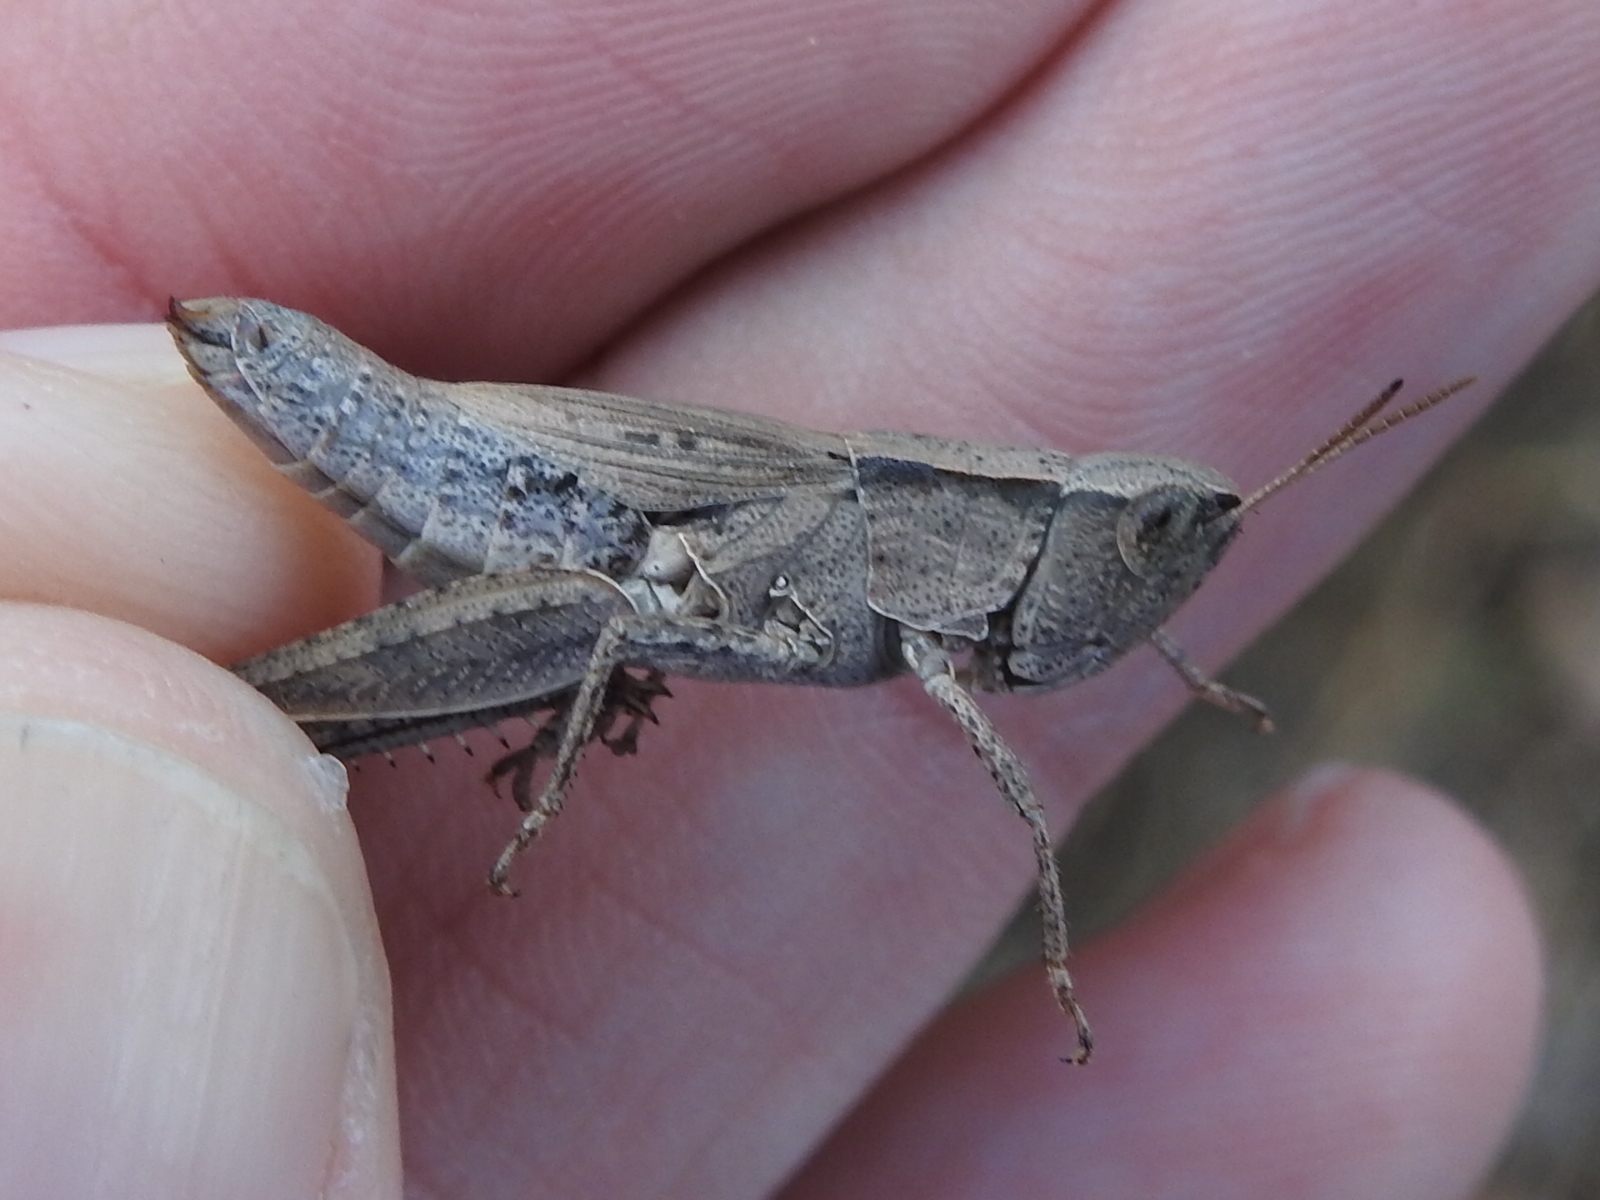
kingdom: Animalia
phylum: Arthropoda
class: Insecta
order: Orthoptera
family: Acrididae
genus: Dichromorpha
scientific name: Dichromorpha viridis
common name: Short-winged green grasshopper
